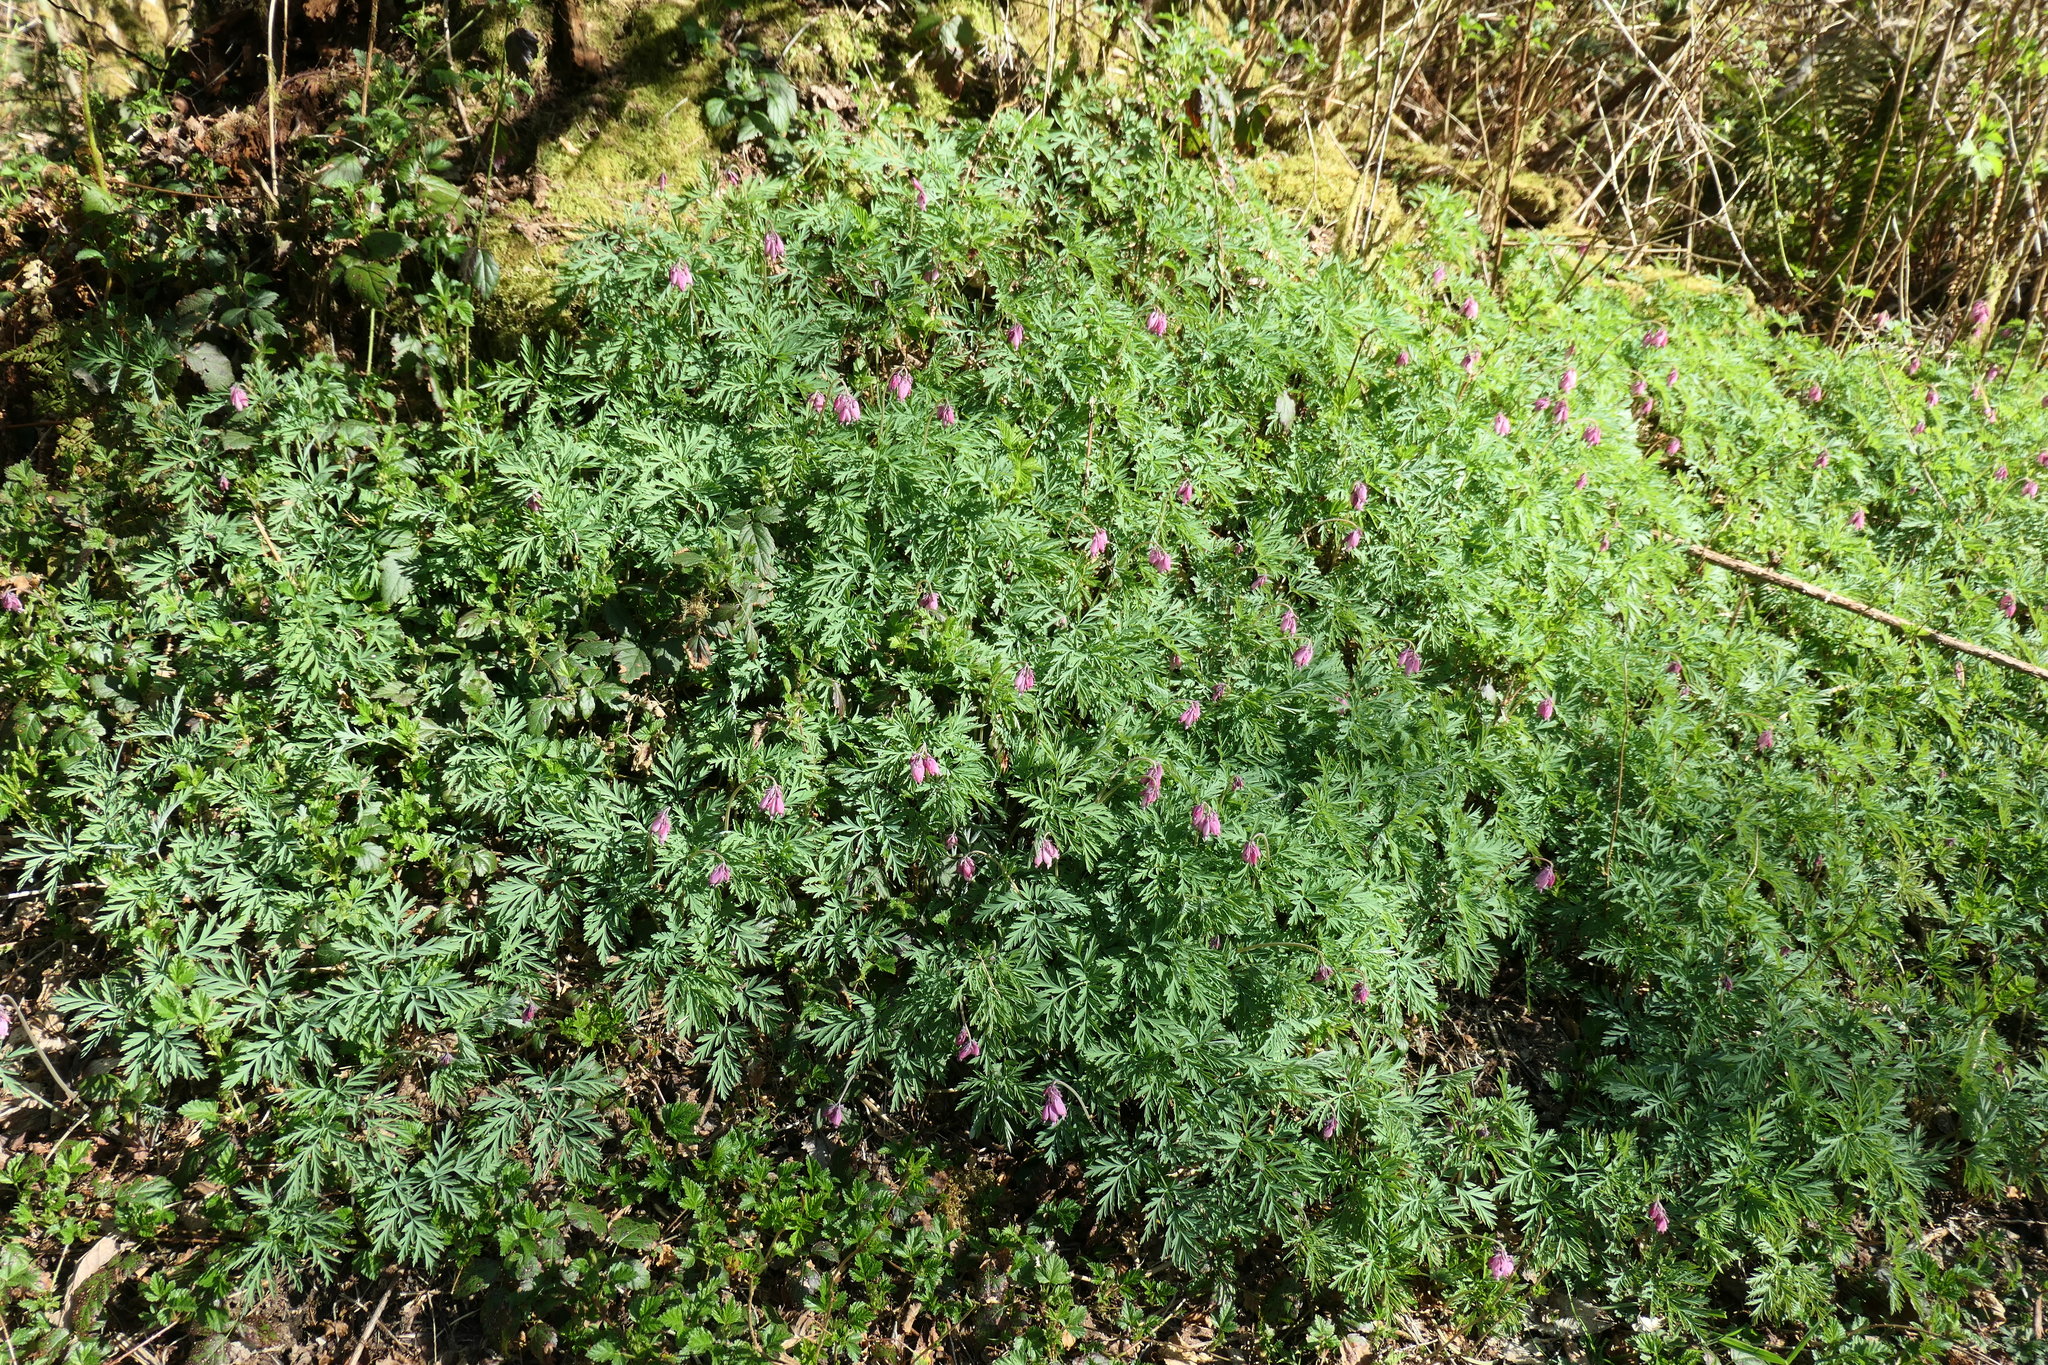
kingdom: Plantae
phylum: Tracheophyta
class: Magnoliopsida
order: Ranunculales
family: Papaveraceae
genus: Dicentra
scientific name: Dicentra formosa
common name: Bleeding-heart
